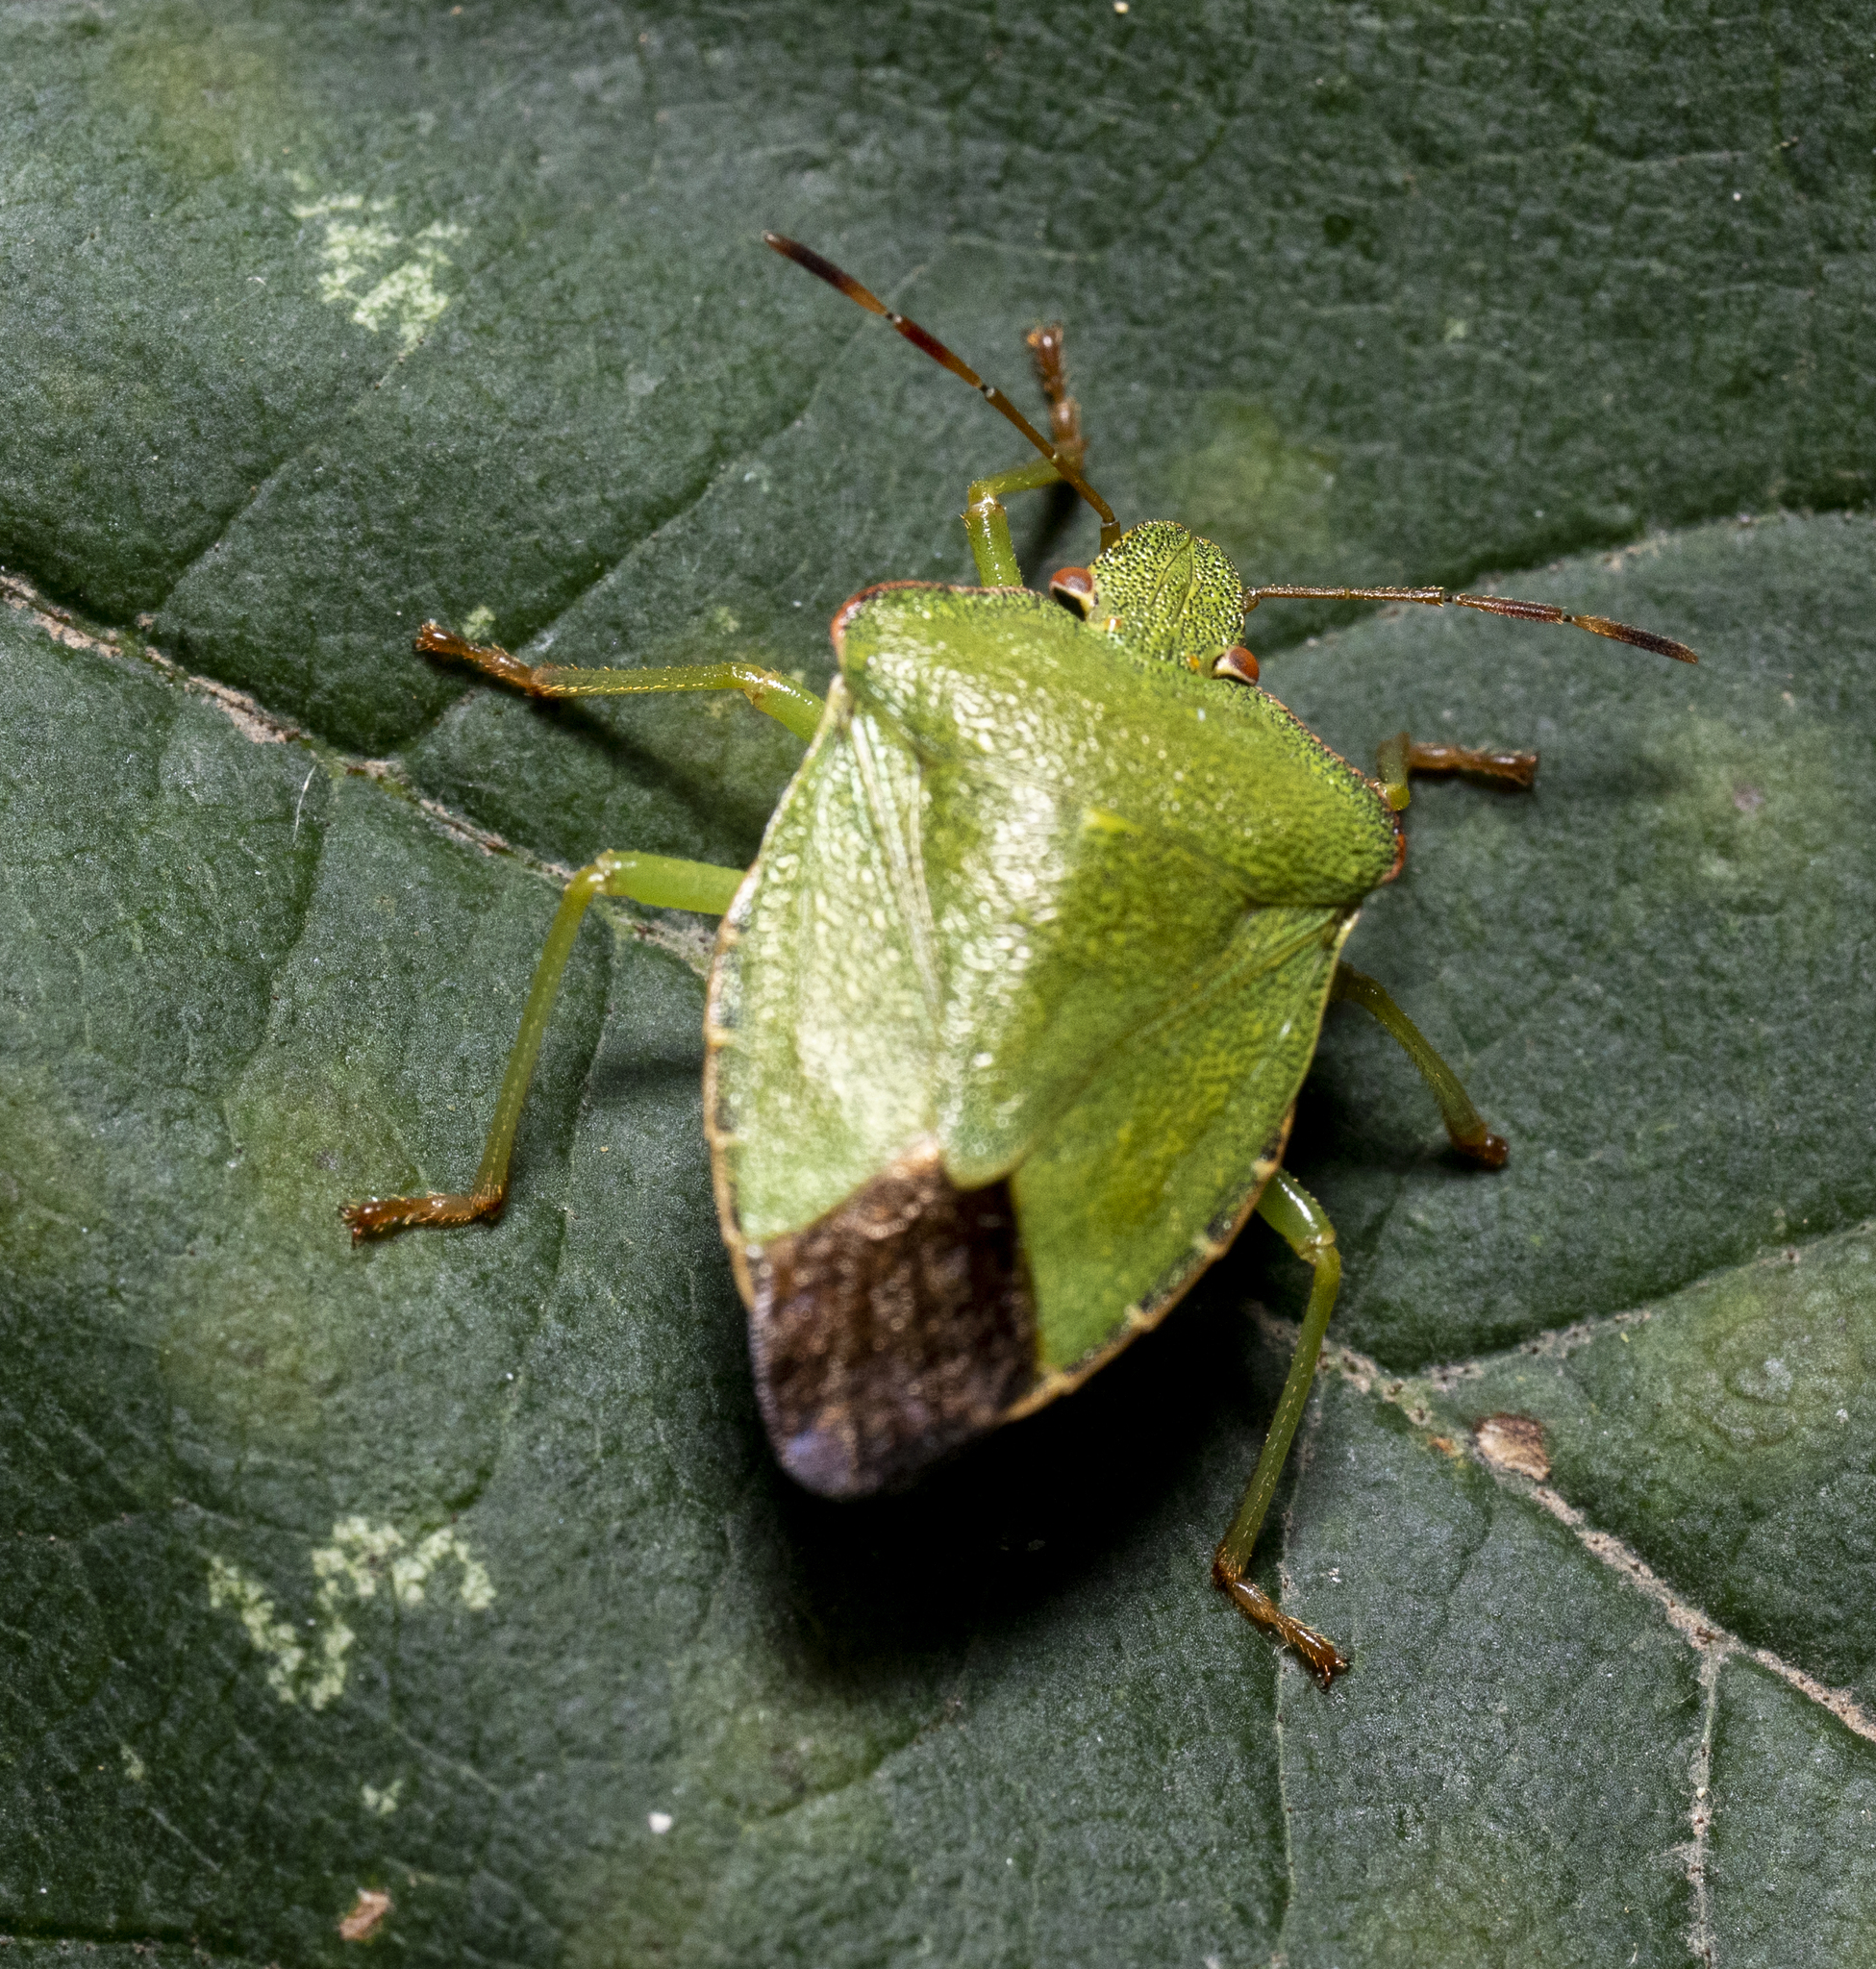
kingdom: Animalia
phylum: Arthropoda
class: Insecta
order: Hemiptera
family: Pentatomidae
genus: Palomena
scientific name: Palomena prasina
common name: Green shieldbug
